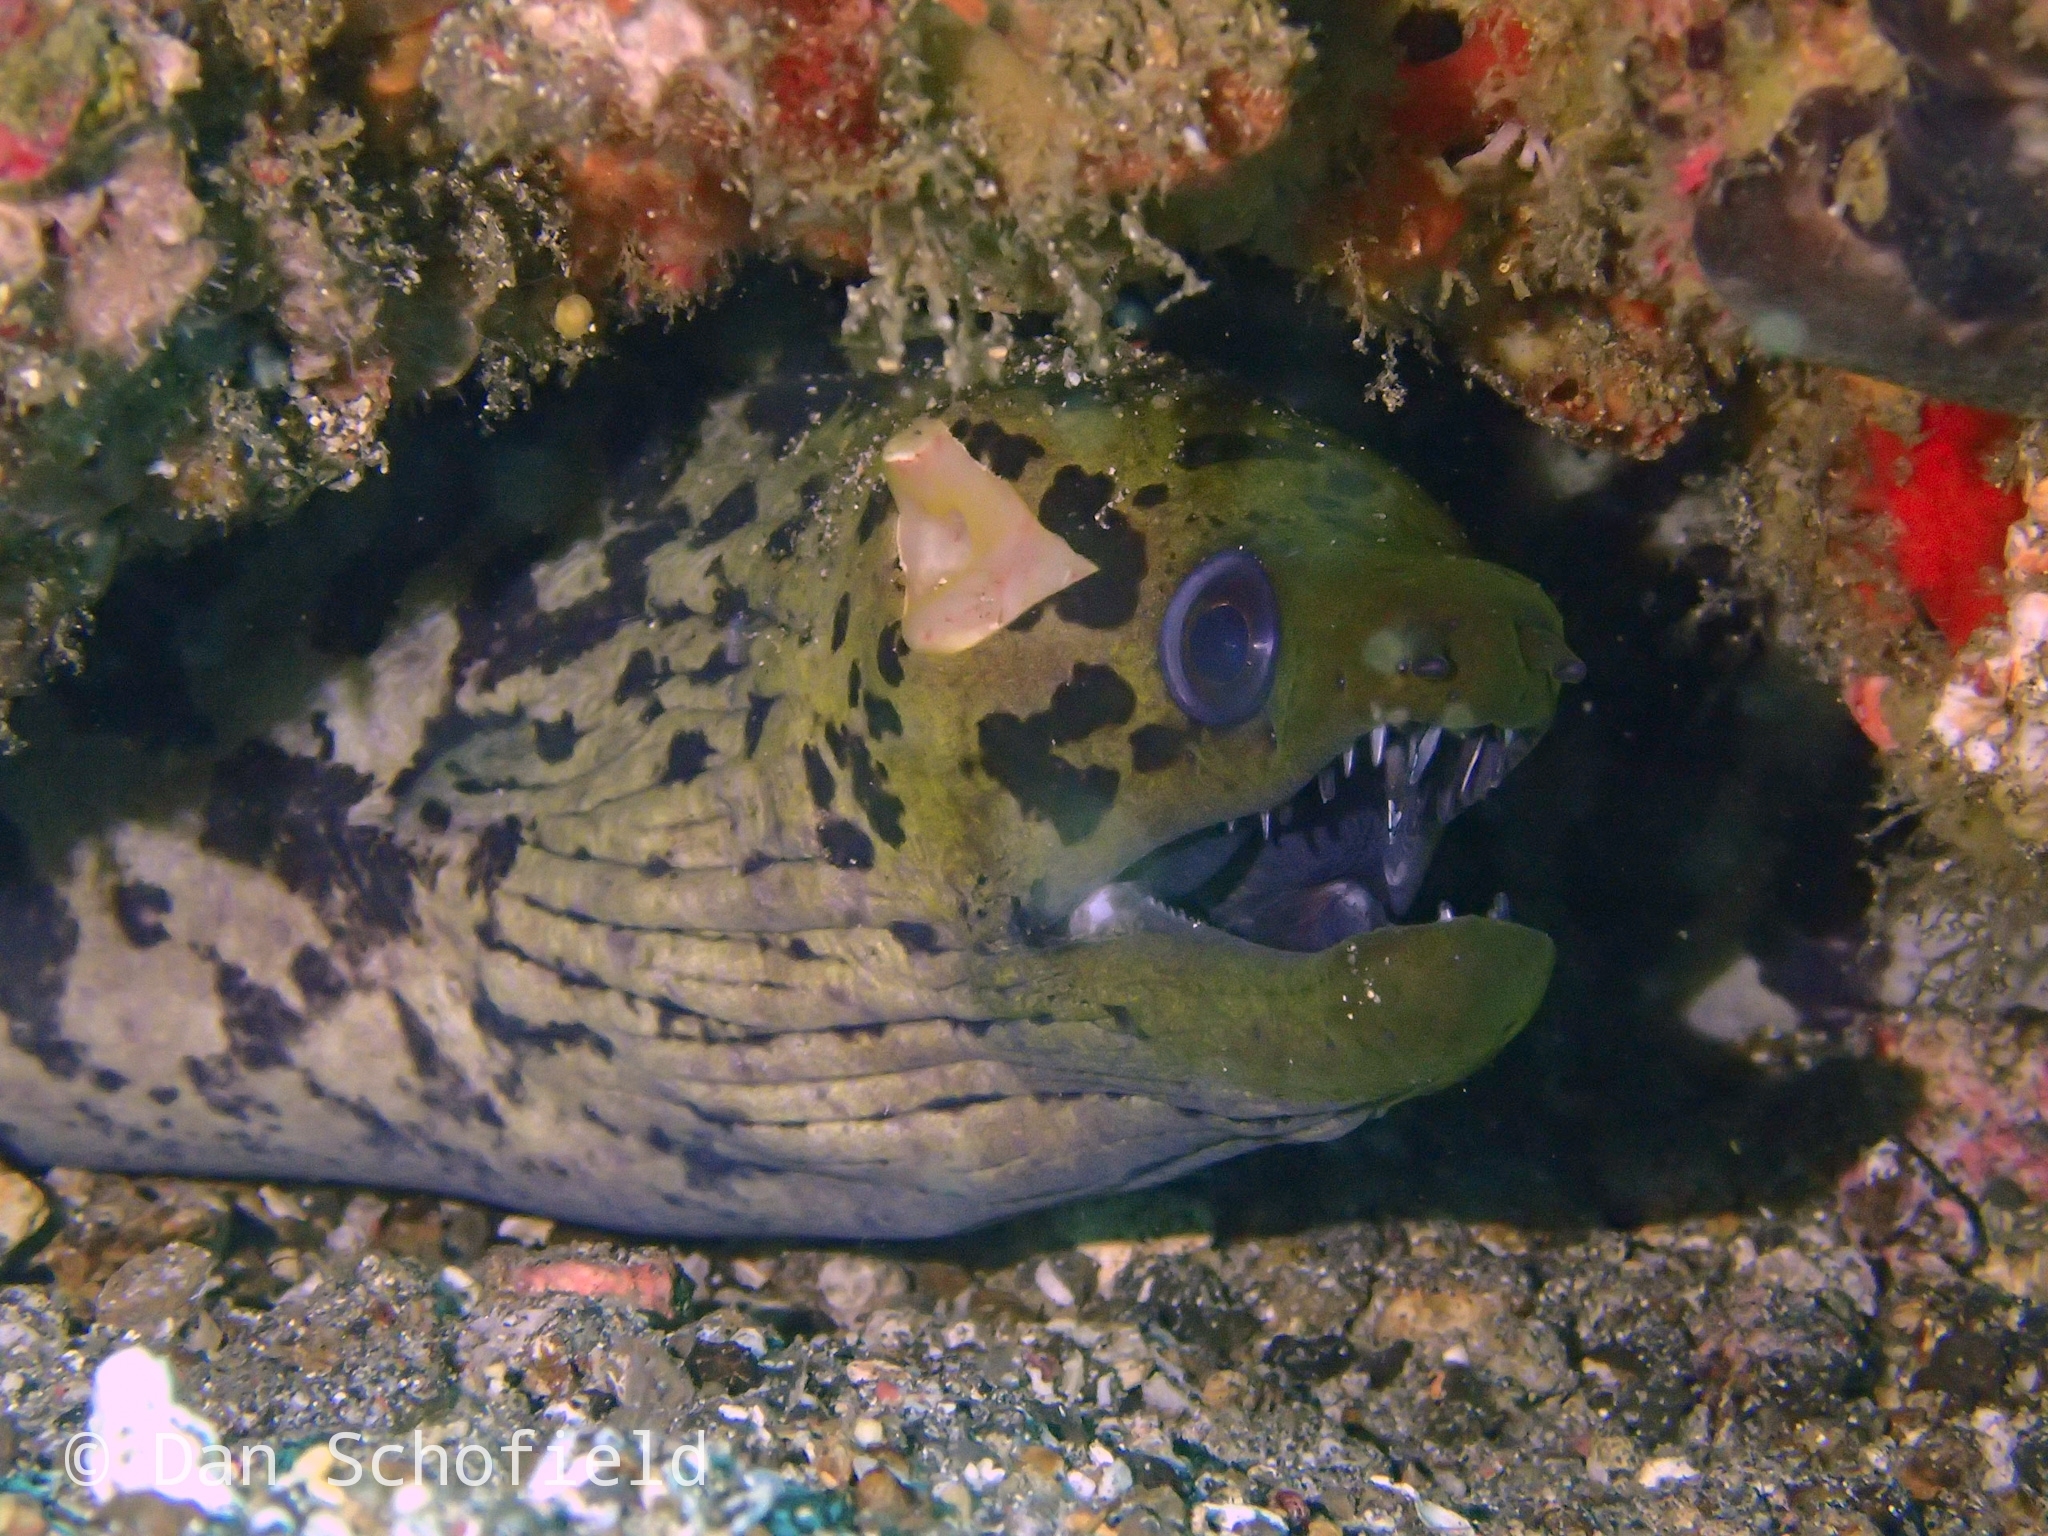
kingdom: Animalia
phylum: Chordata
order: Anguilliformes
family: Muraenidae
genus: Gymnothorax
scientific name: Gymnothorax fimbriatus
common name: Darkspotted moray
